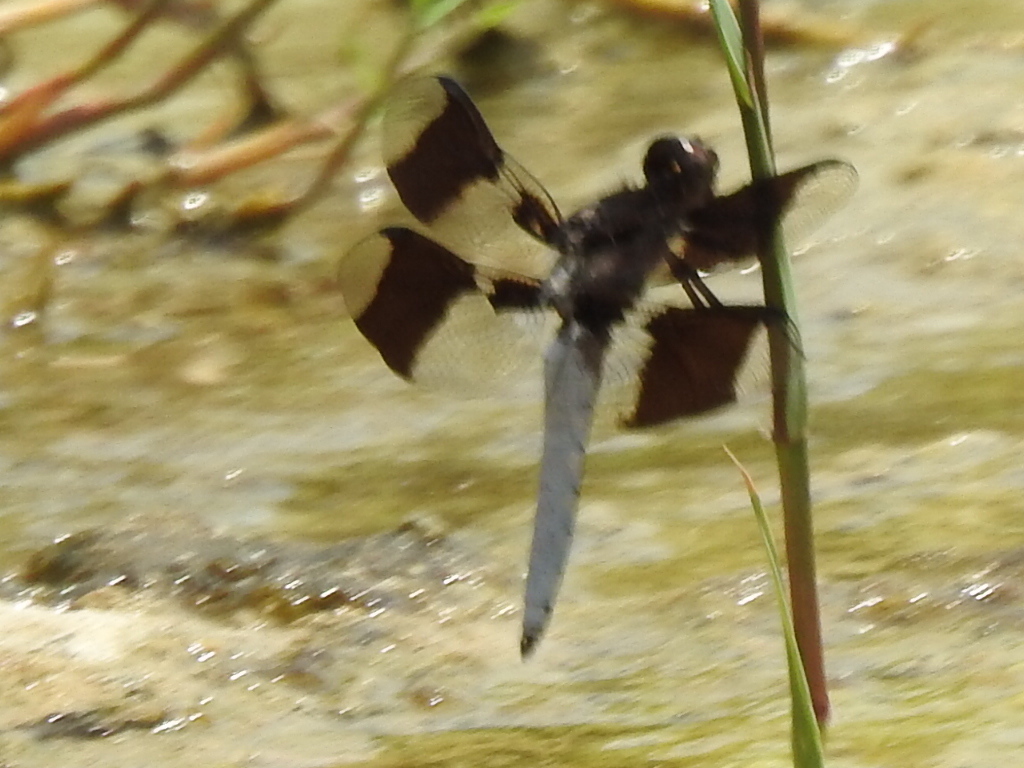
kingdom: Animalia
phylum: Arthropoda
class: Insecta
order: Odonata
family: Libellulidae
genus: Plathemis
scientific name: Plathemis lydia
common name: Common whitetail
